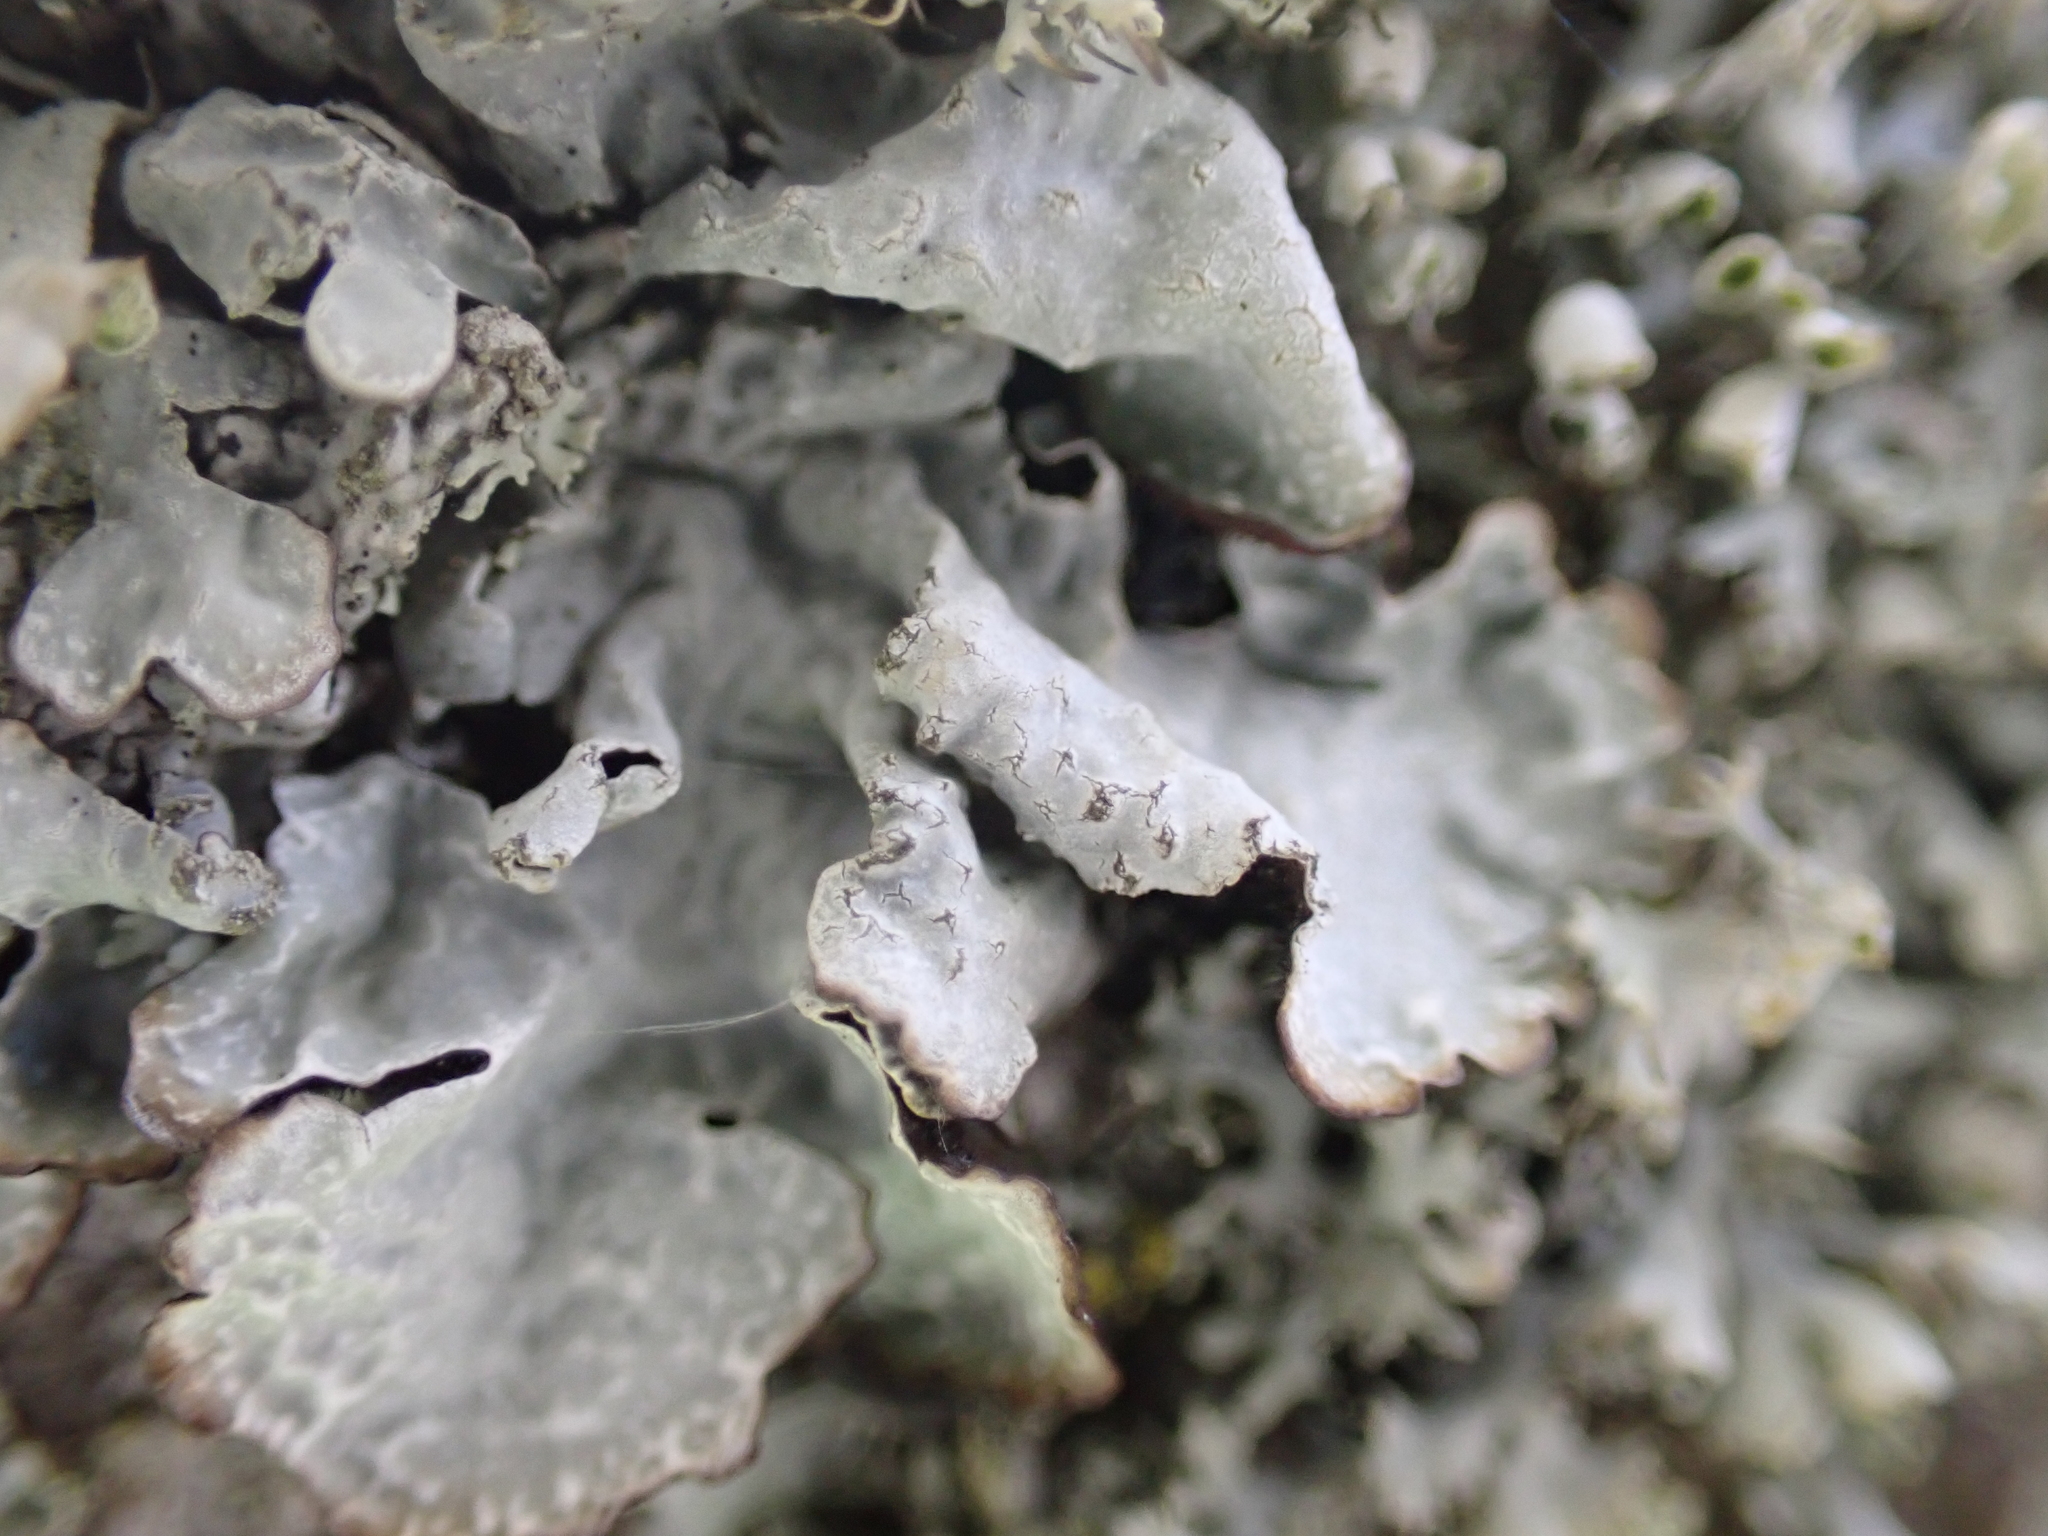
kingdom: Fungi
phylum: Ascomycota
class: Lecanoromycetes
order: Lecanorales
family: Parmeliaceae
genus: Parmelia
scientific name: Parmelia sulcata
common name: Netted shield lichen
